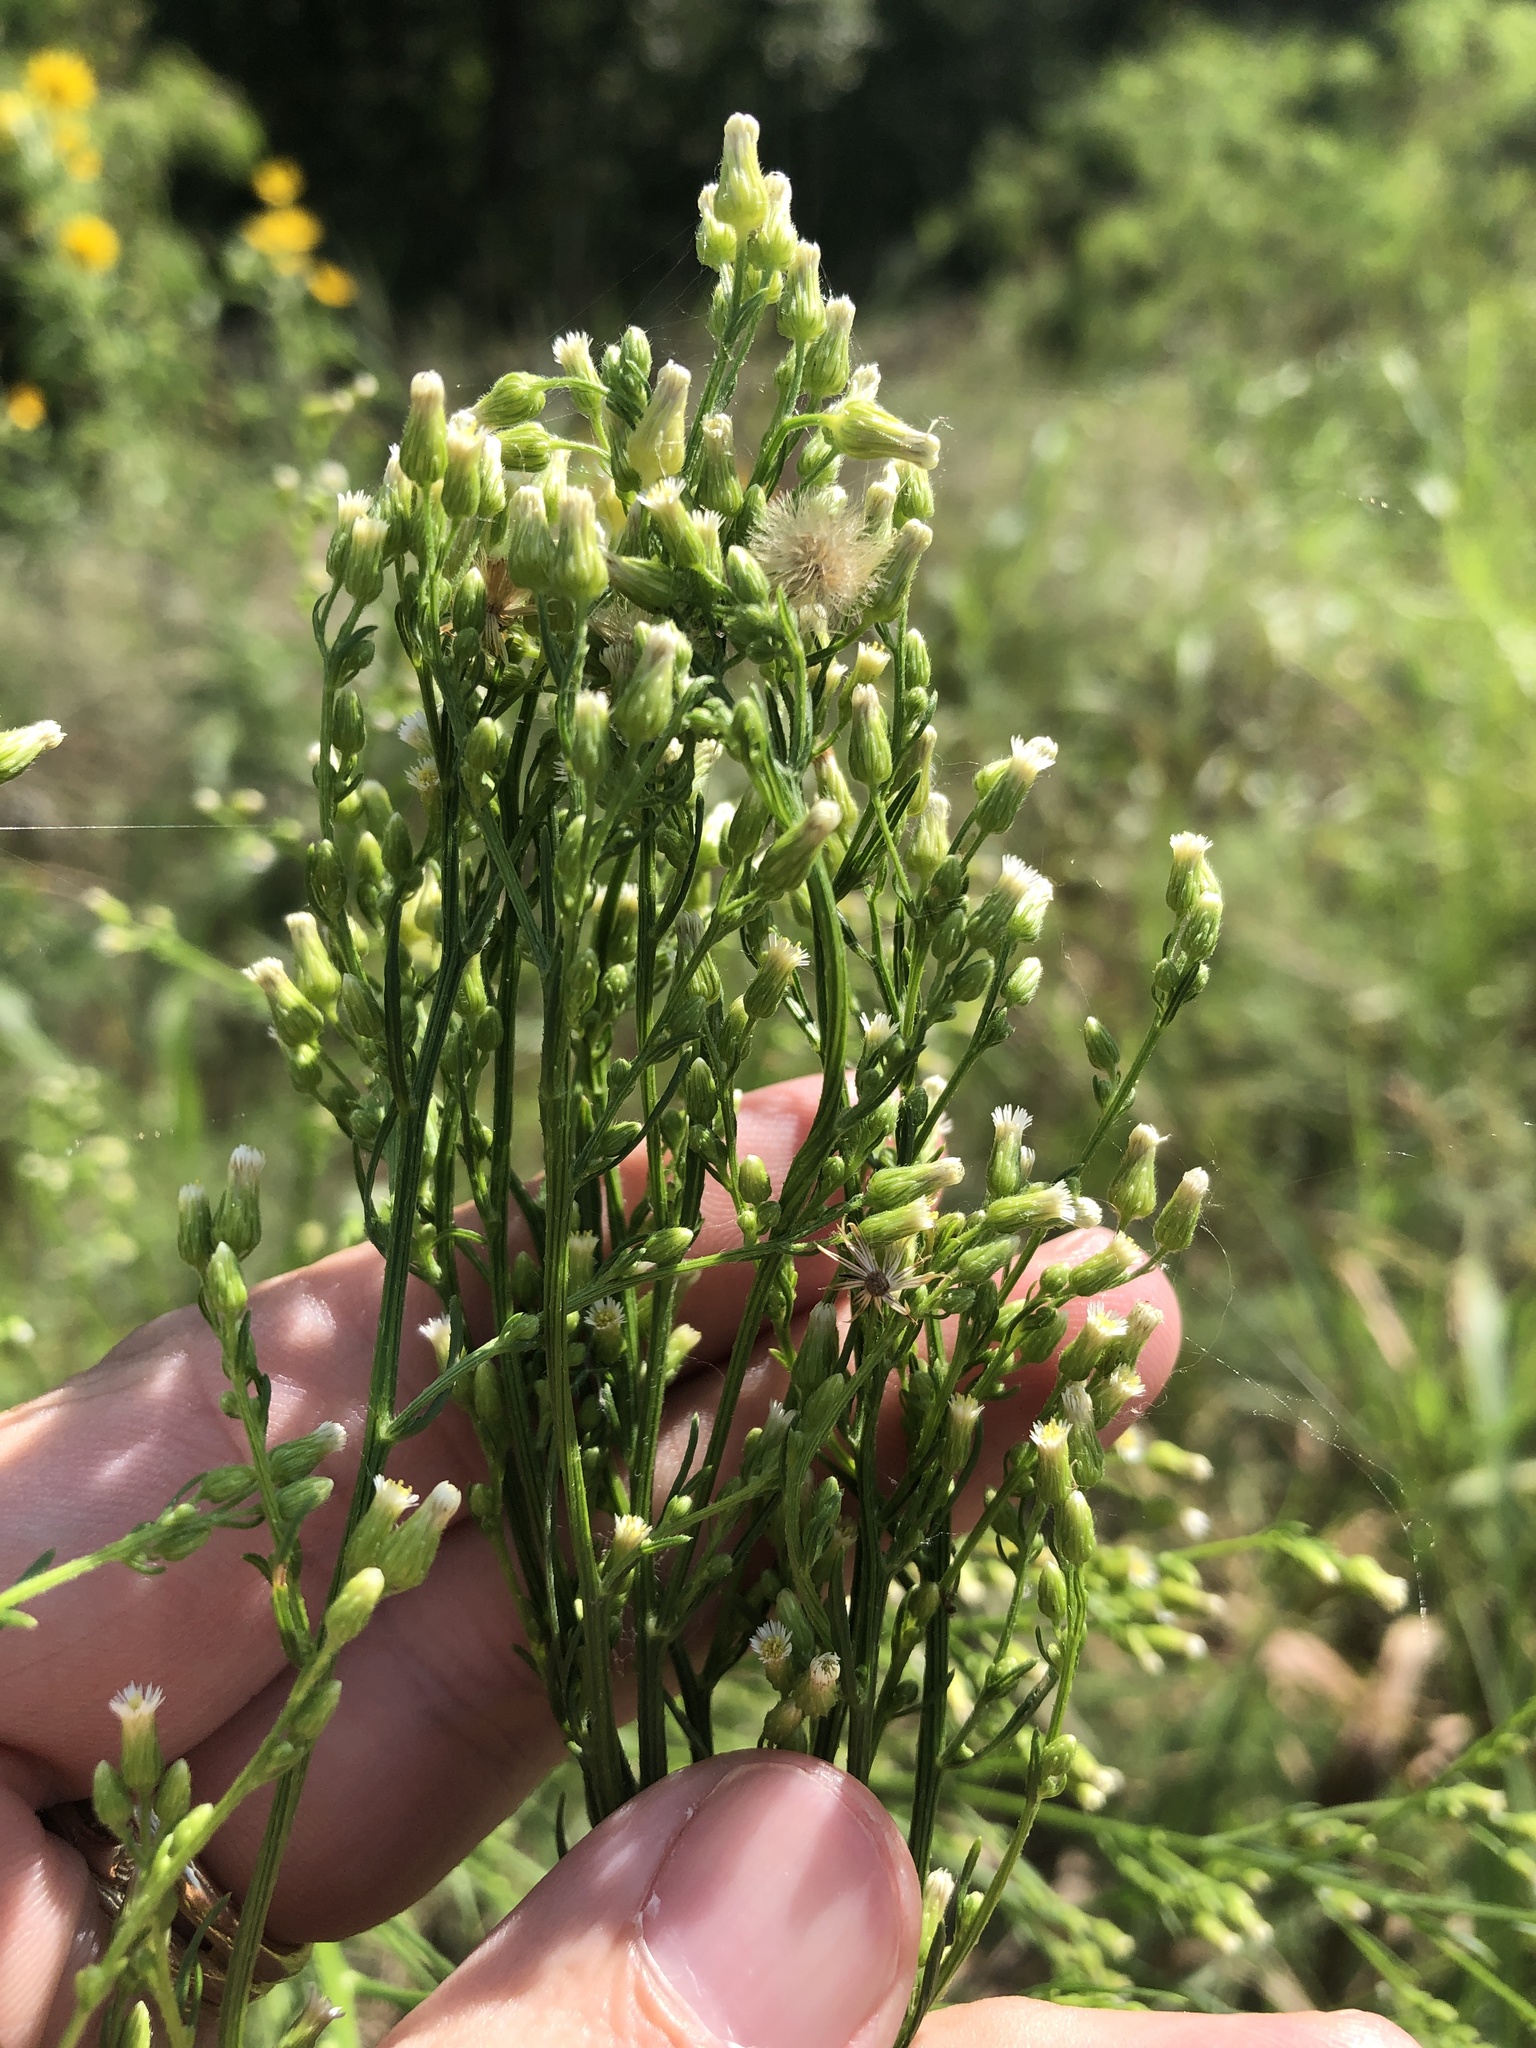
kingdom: Plantae
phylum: Tracheophyta
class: Magnoliopsida
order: Asterales
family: Asteraceae
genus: Erigeron
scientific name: Erigeron canadensis
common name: Canadian fleabane
